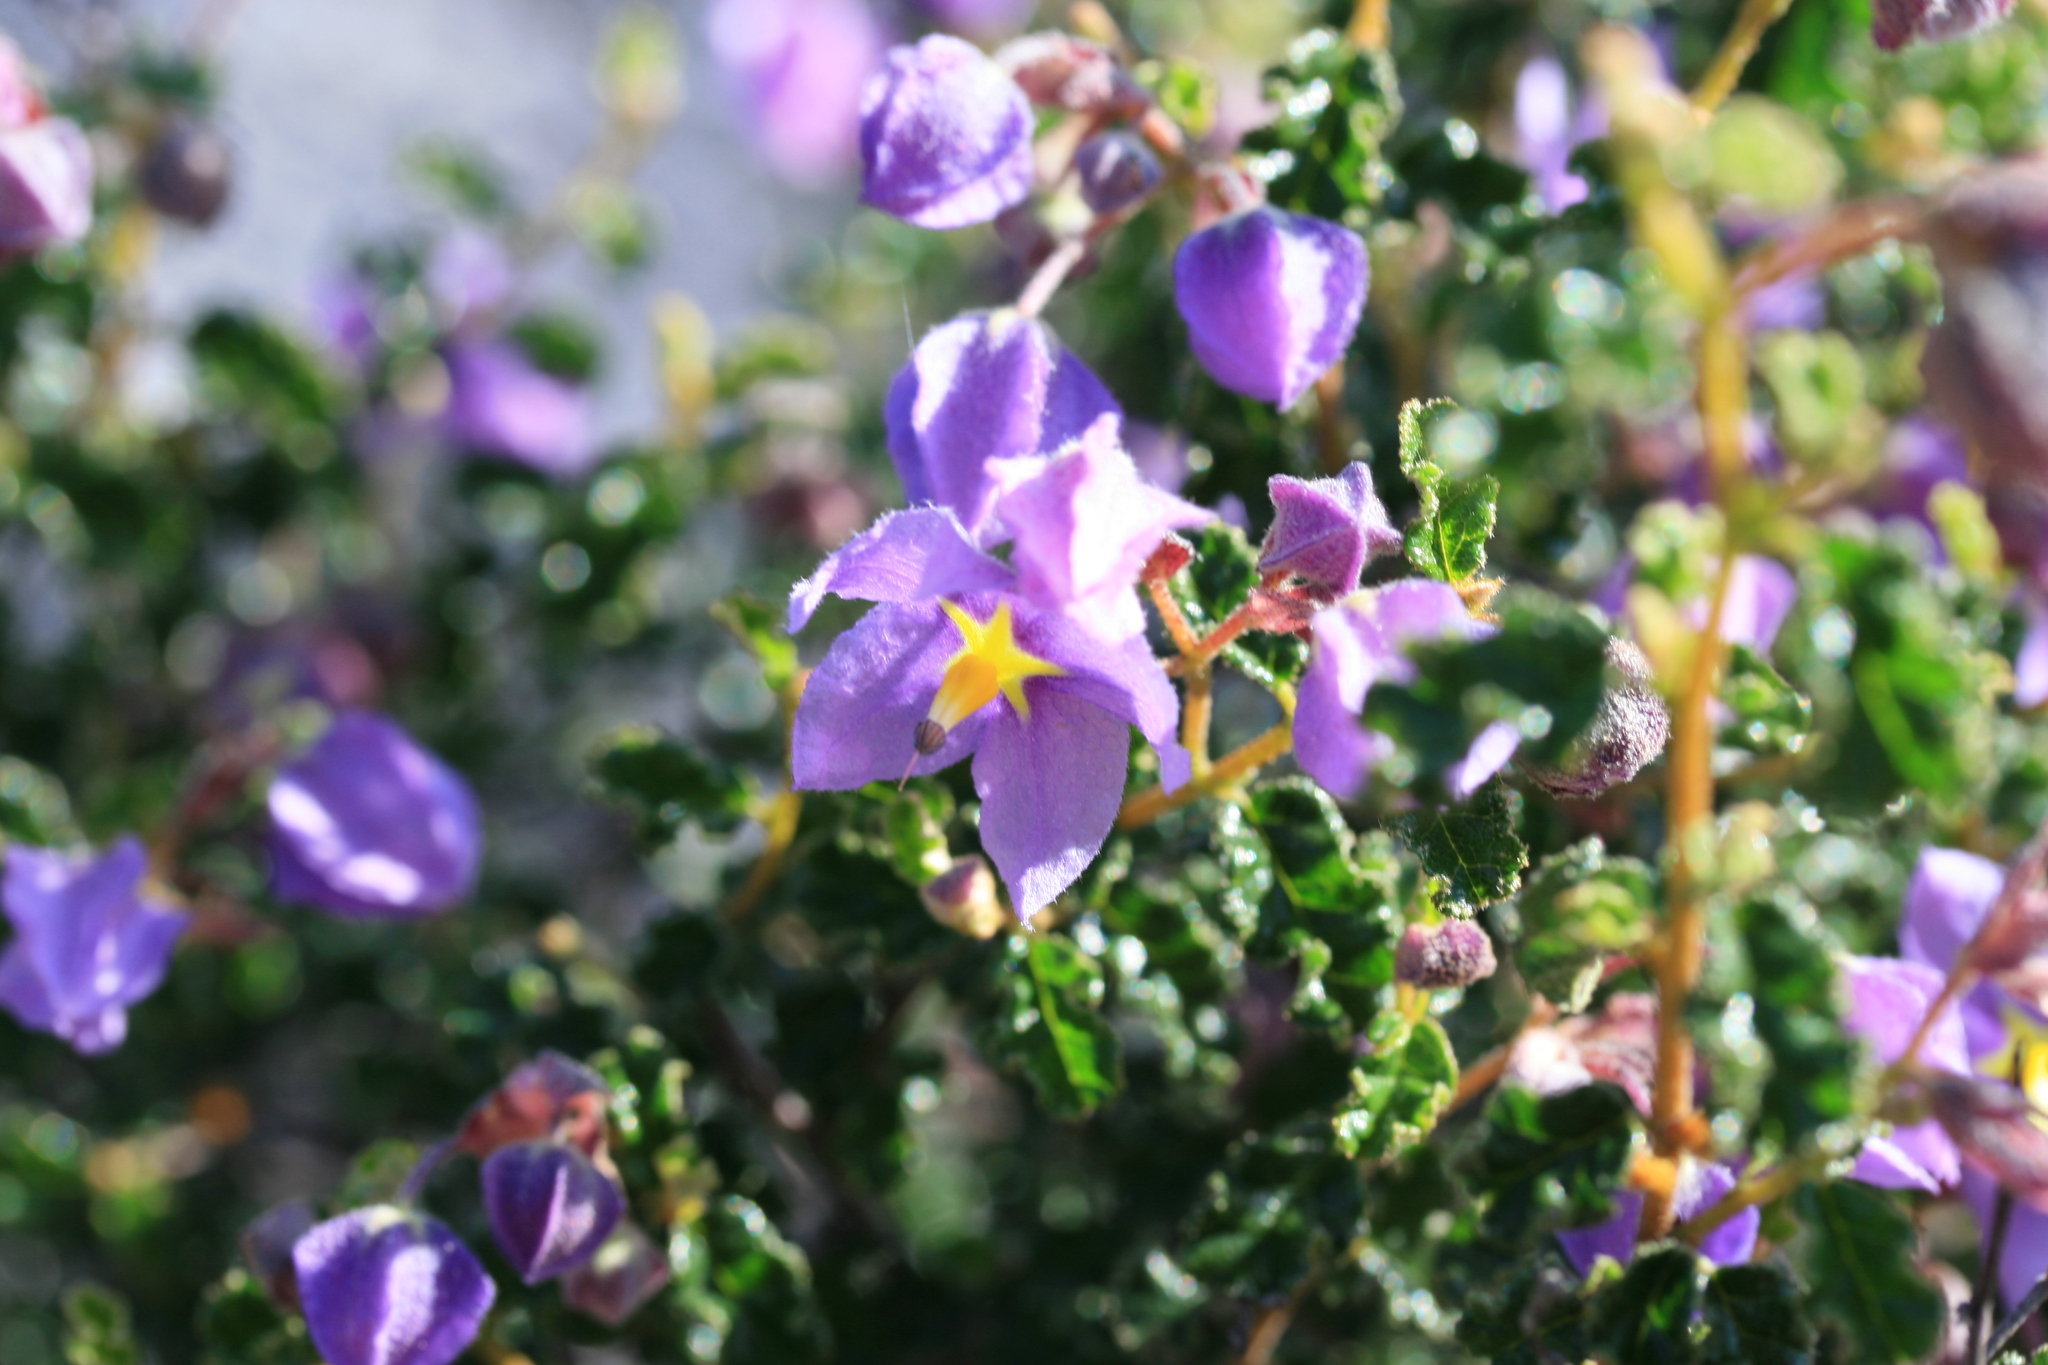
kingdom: Plantae
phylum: Tracheophyta
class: Magnoliopsida
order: Malvales
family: Malvaceae
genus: Seringia
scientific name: Seringia hermannifolia
